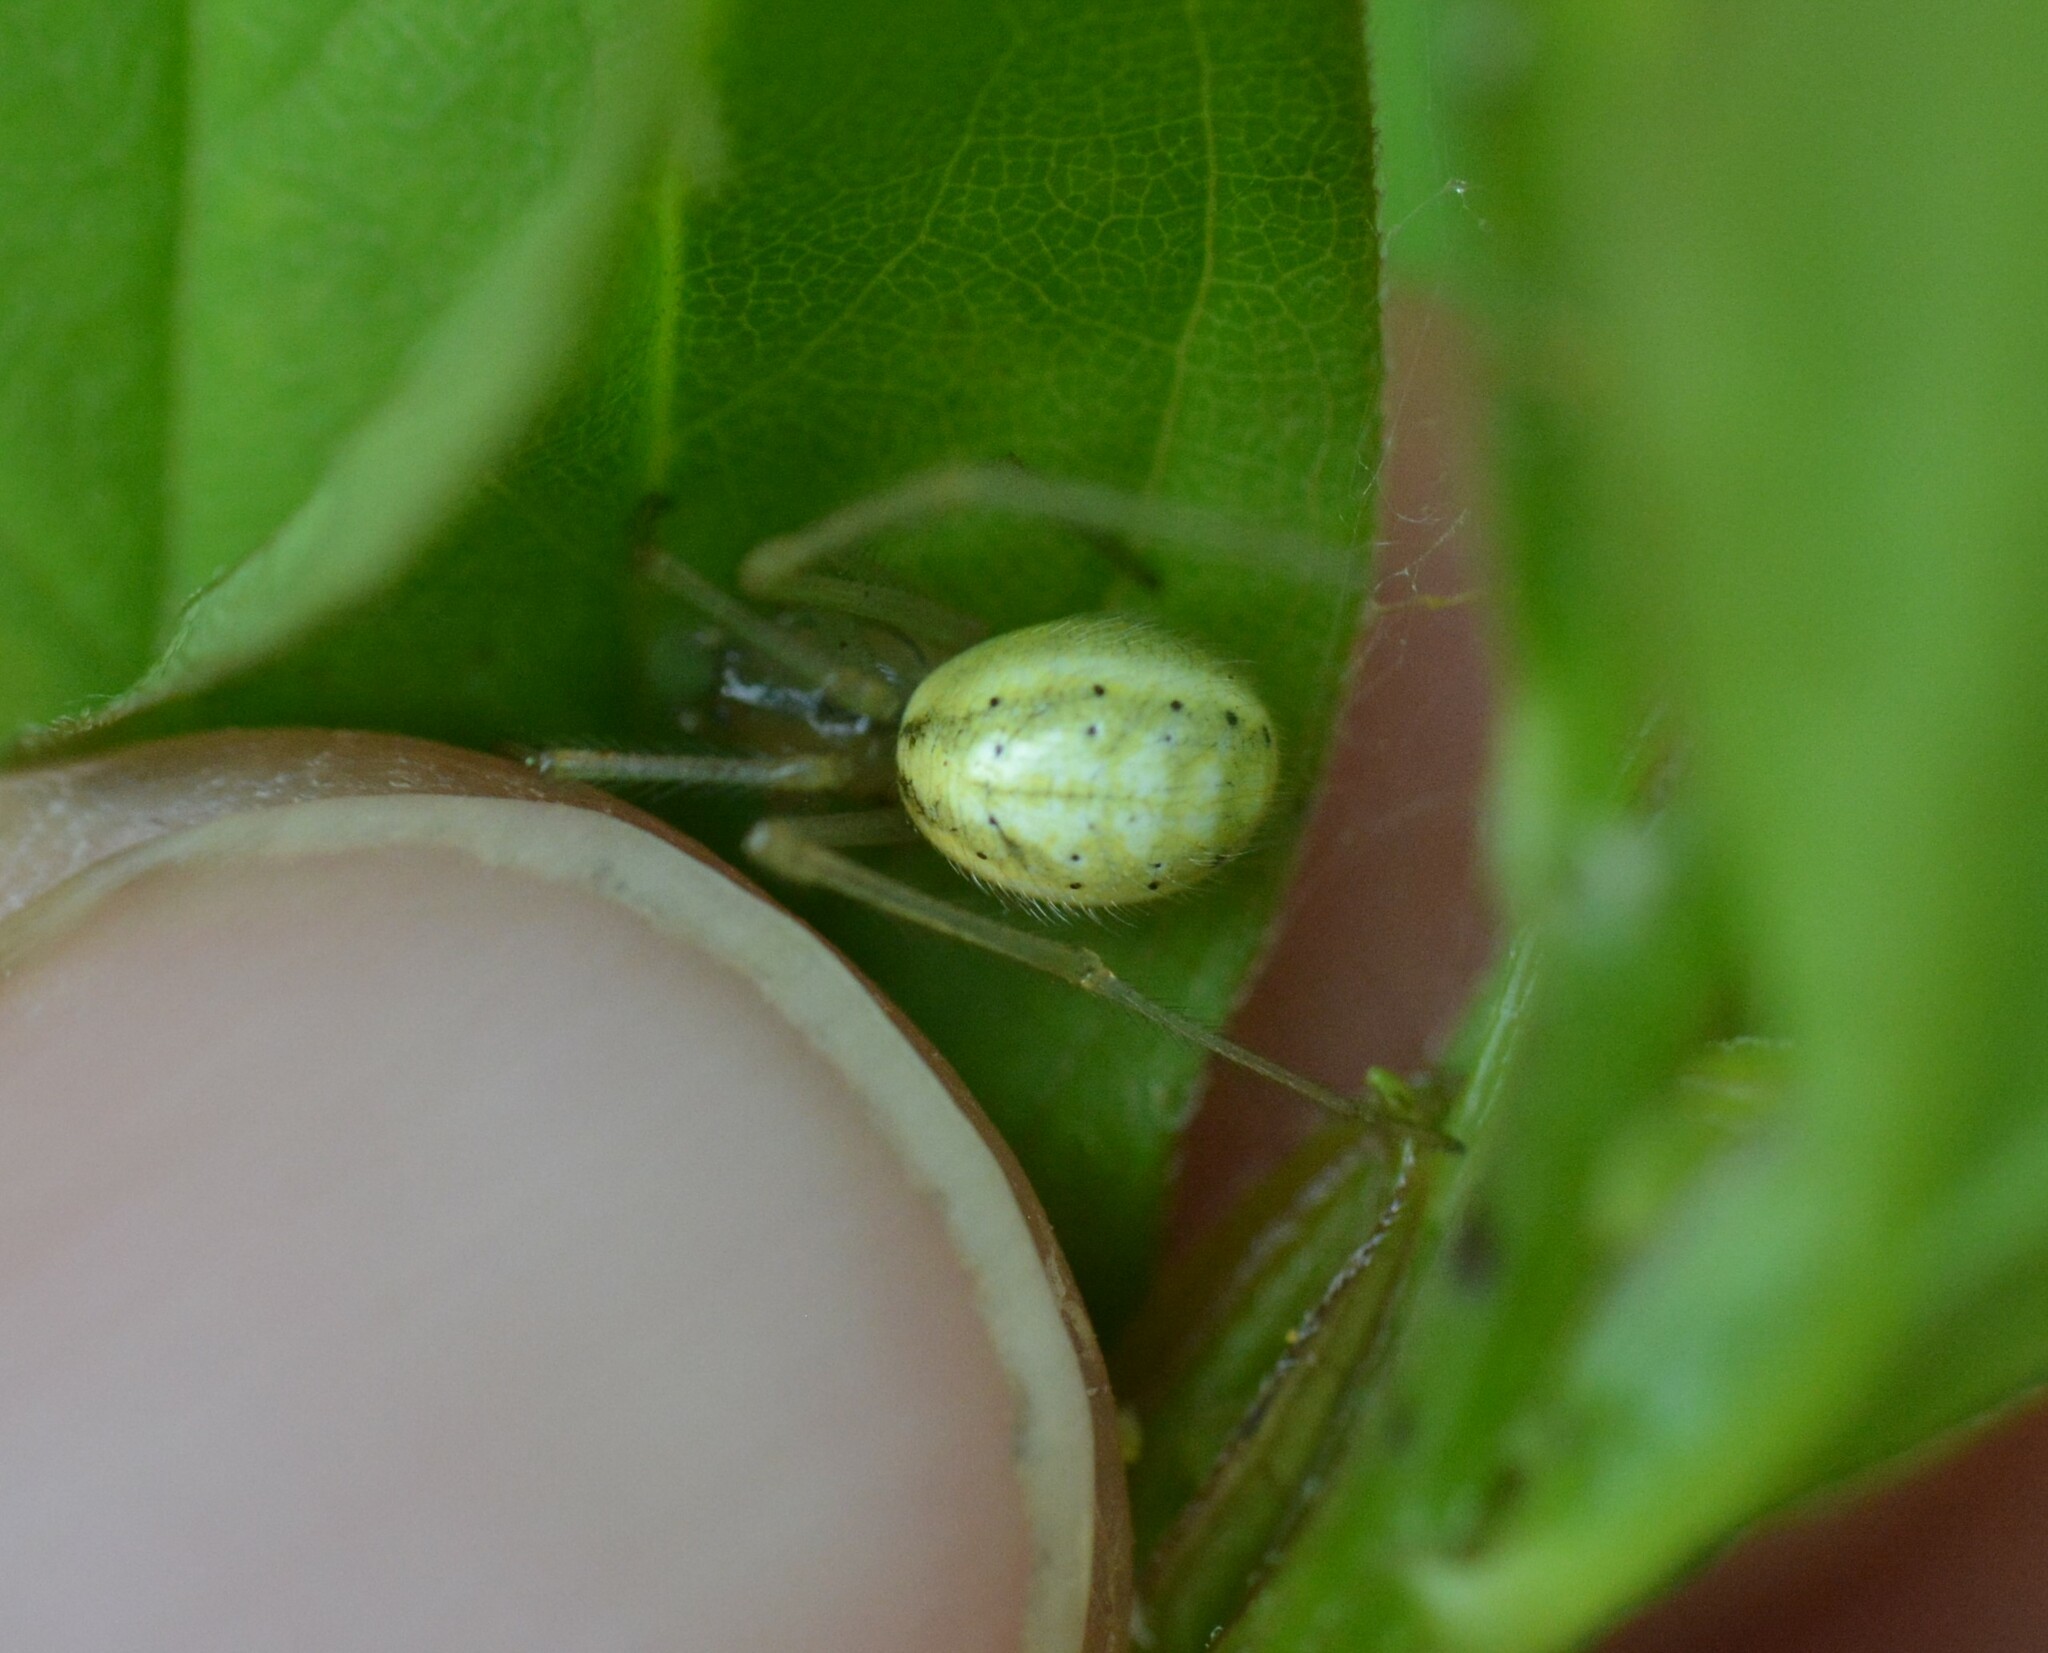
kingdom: Animalia
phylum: Arthropoda
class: Arachnida
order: Araneae
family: Theridiidae
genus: Enoplognatha
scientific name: Enoplognatha ovata
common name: Common candy-striped spider
